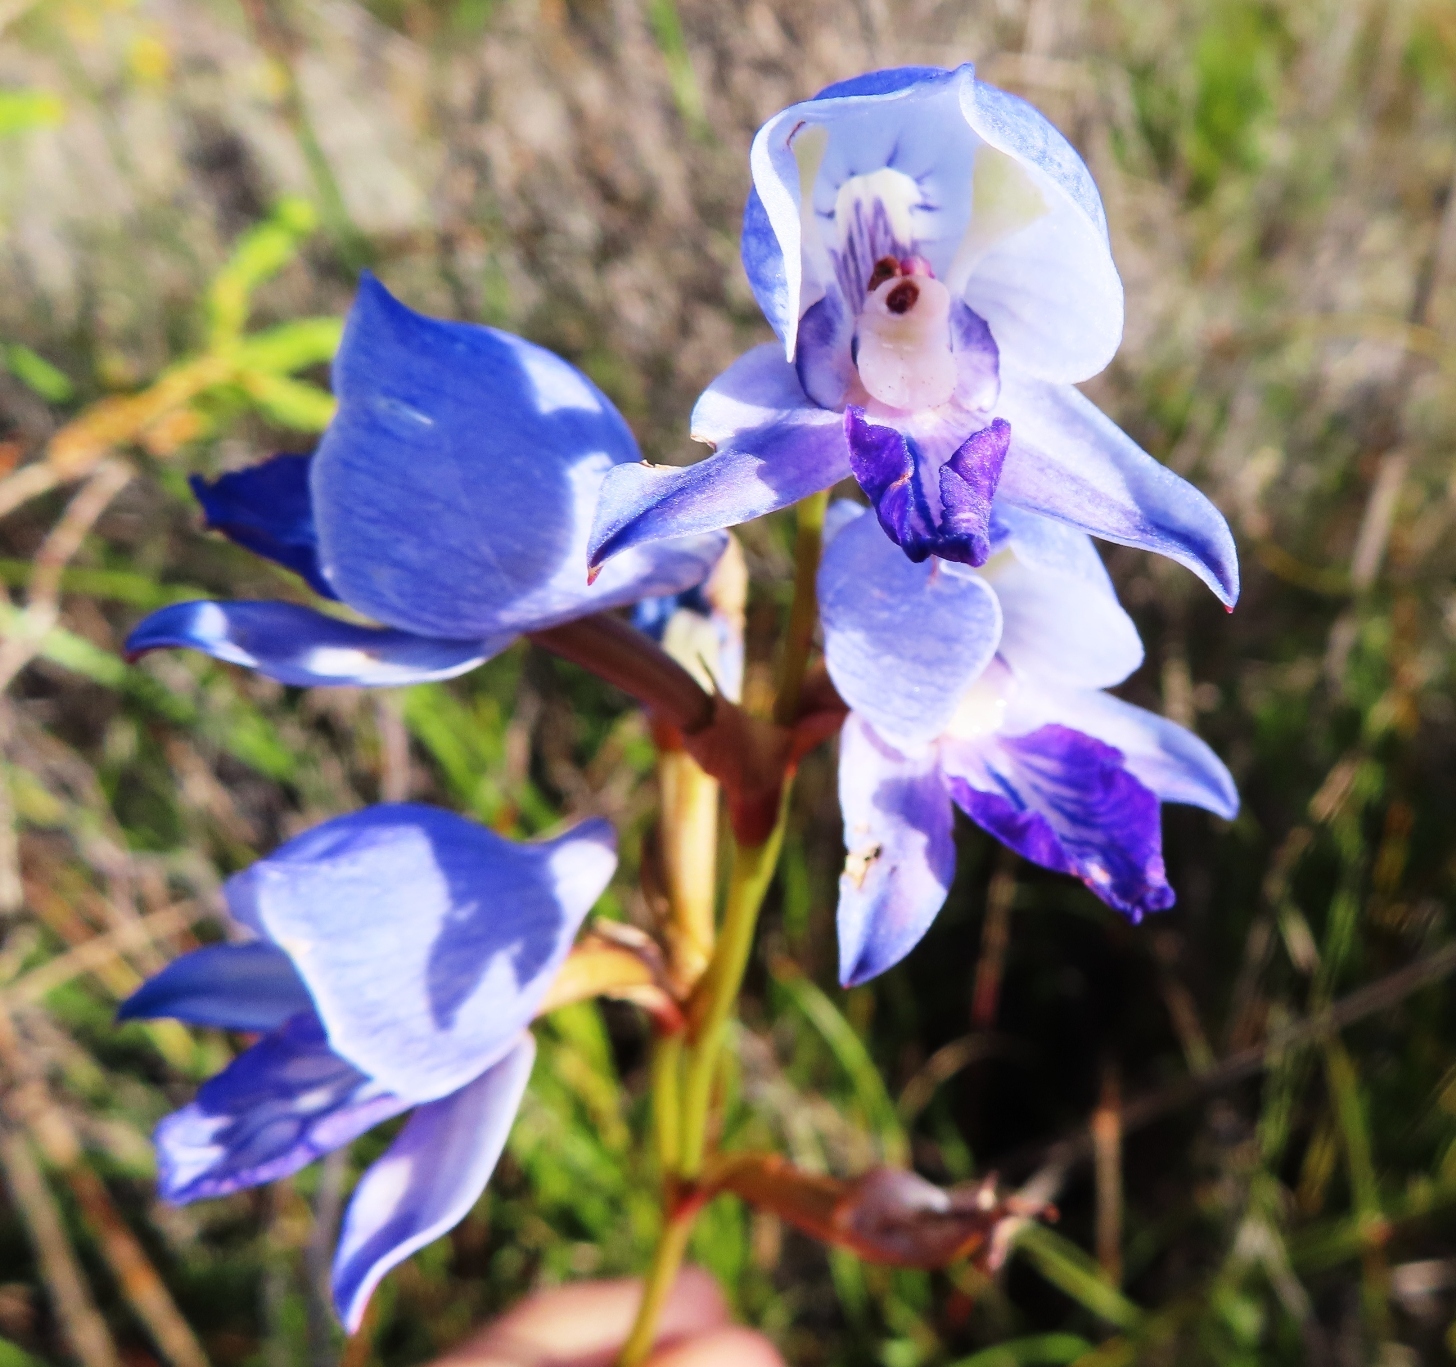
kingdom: Plantae
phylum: Tracheophyta
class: Liliopsida
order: Asparagales
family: Orchidaceae
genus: Disa
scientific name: Disa purpurascens
